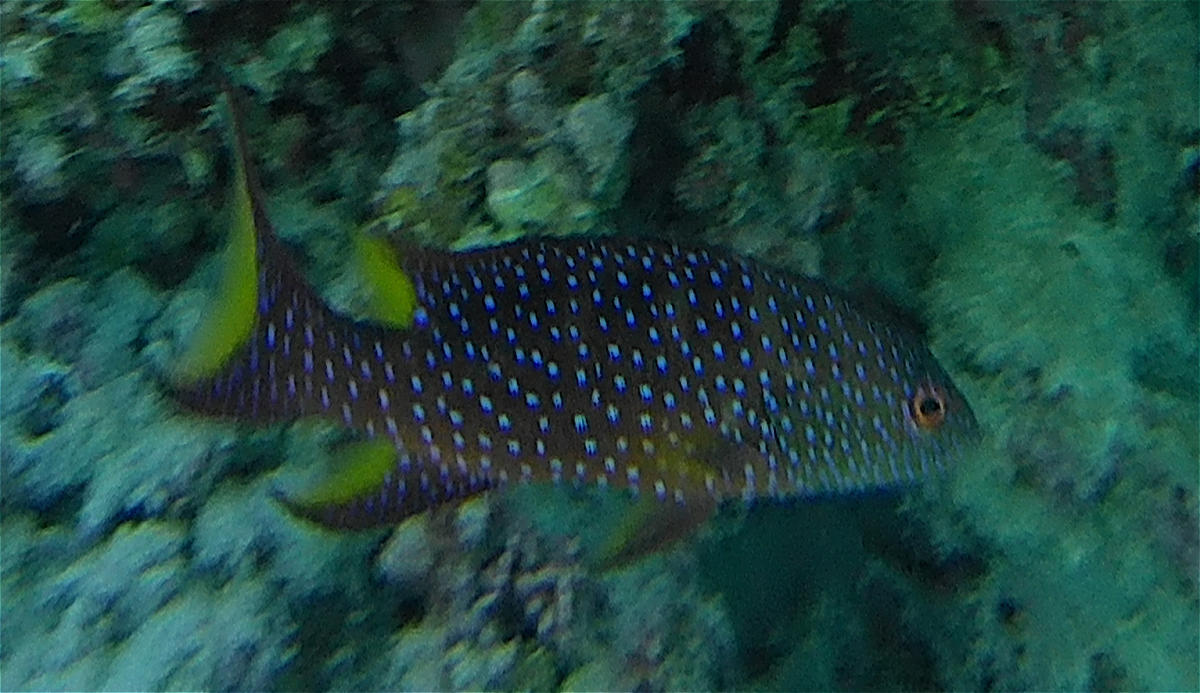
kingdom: Animalia
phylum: Chordata
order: Perciformes
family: Serranidae
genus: Variola
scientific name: Variola louti
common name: Yellow-edged lyretail
